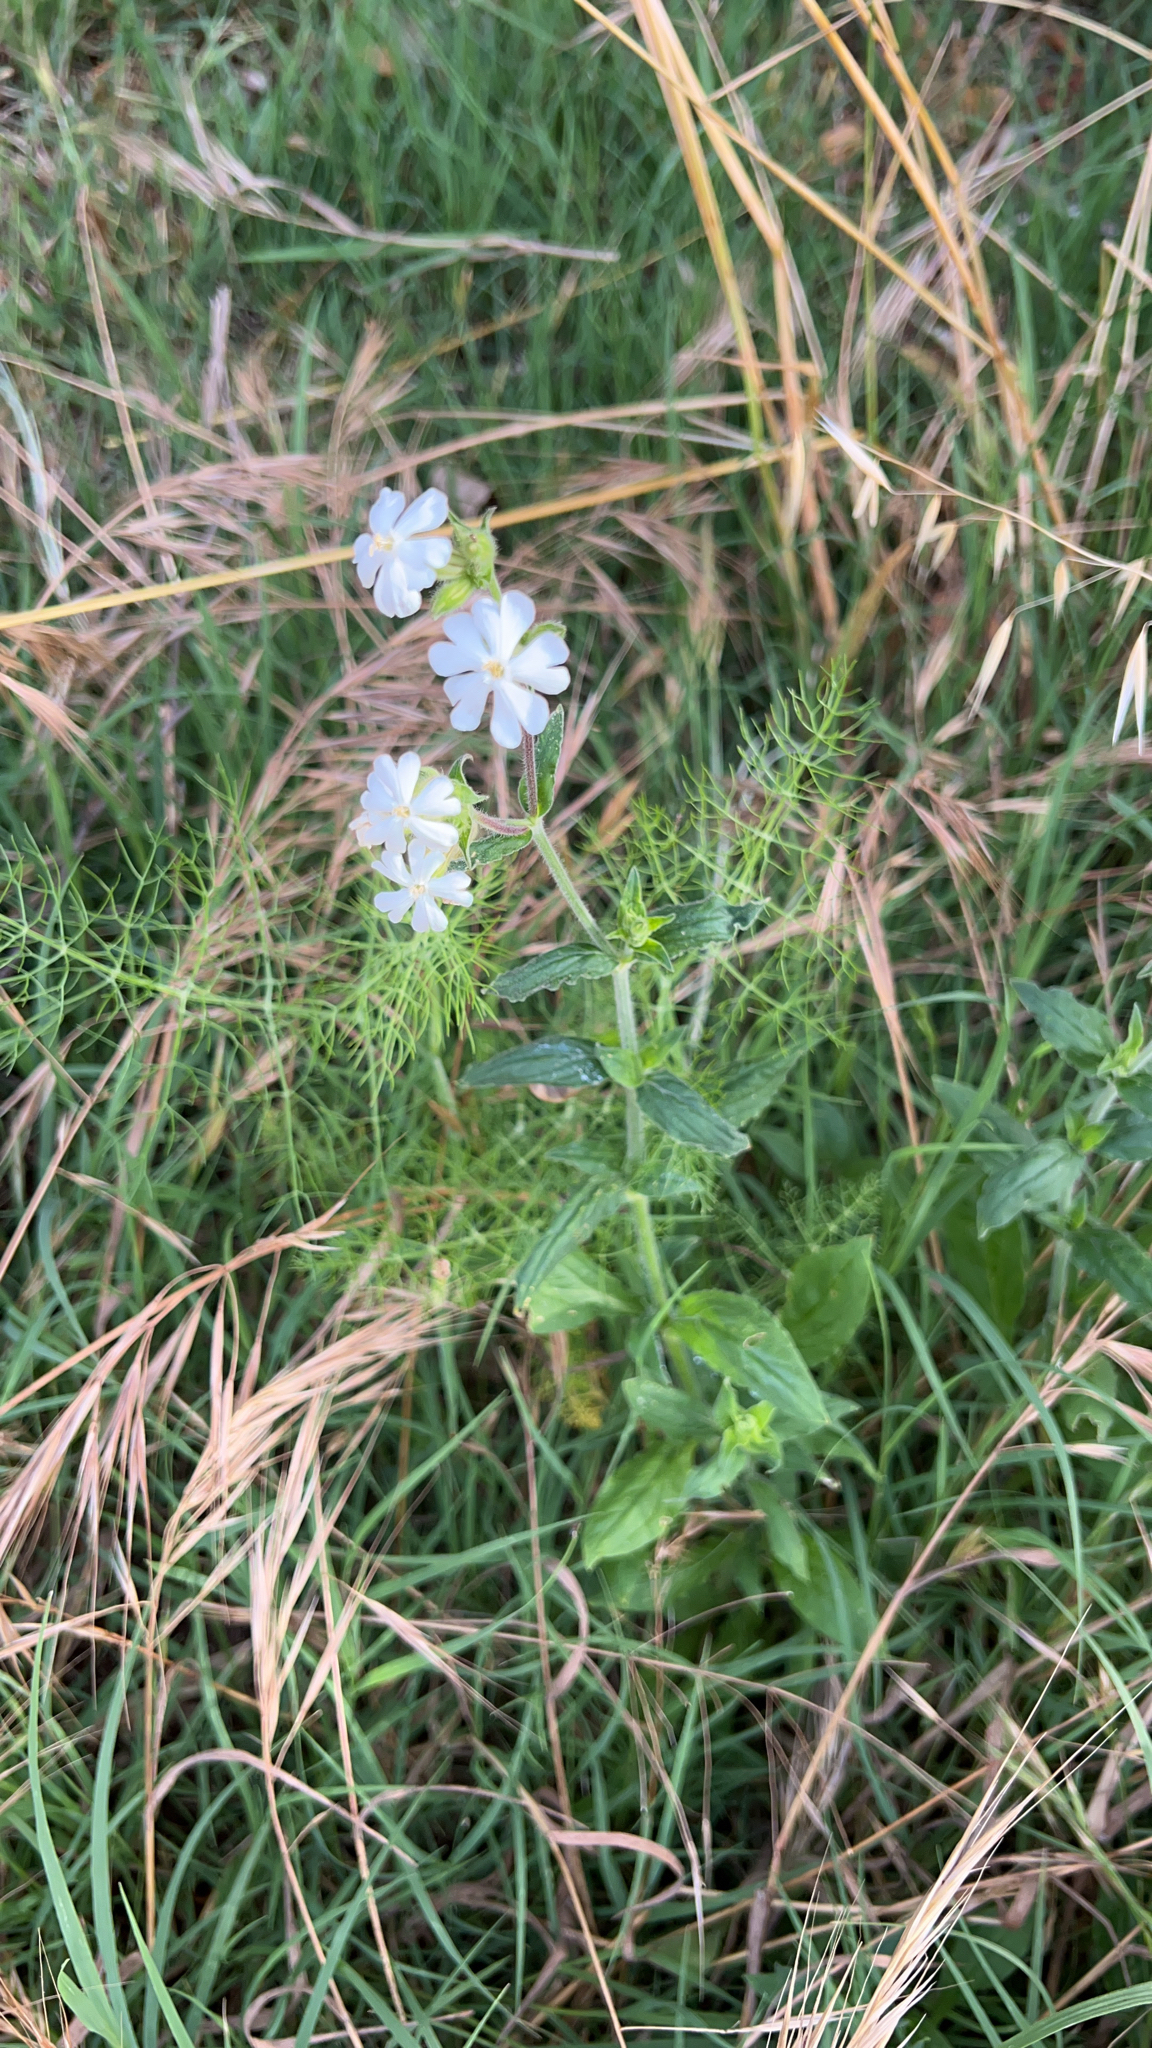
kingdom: Plantae
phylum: Tracheophyta
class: Magnoliopsida
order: Caryophyllales
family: Caryophyllaceae
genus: Silene
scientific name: Silene latifolia
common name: White campion
